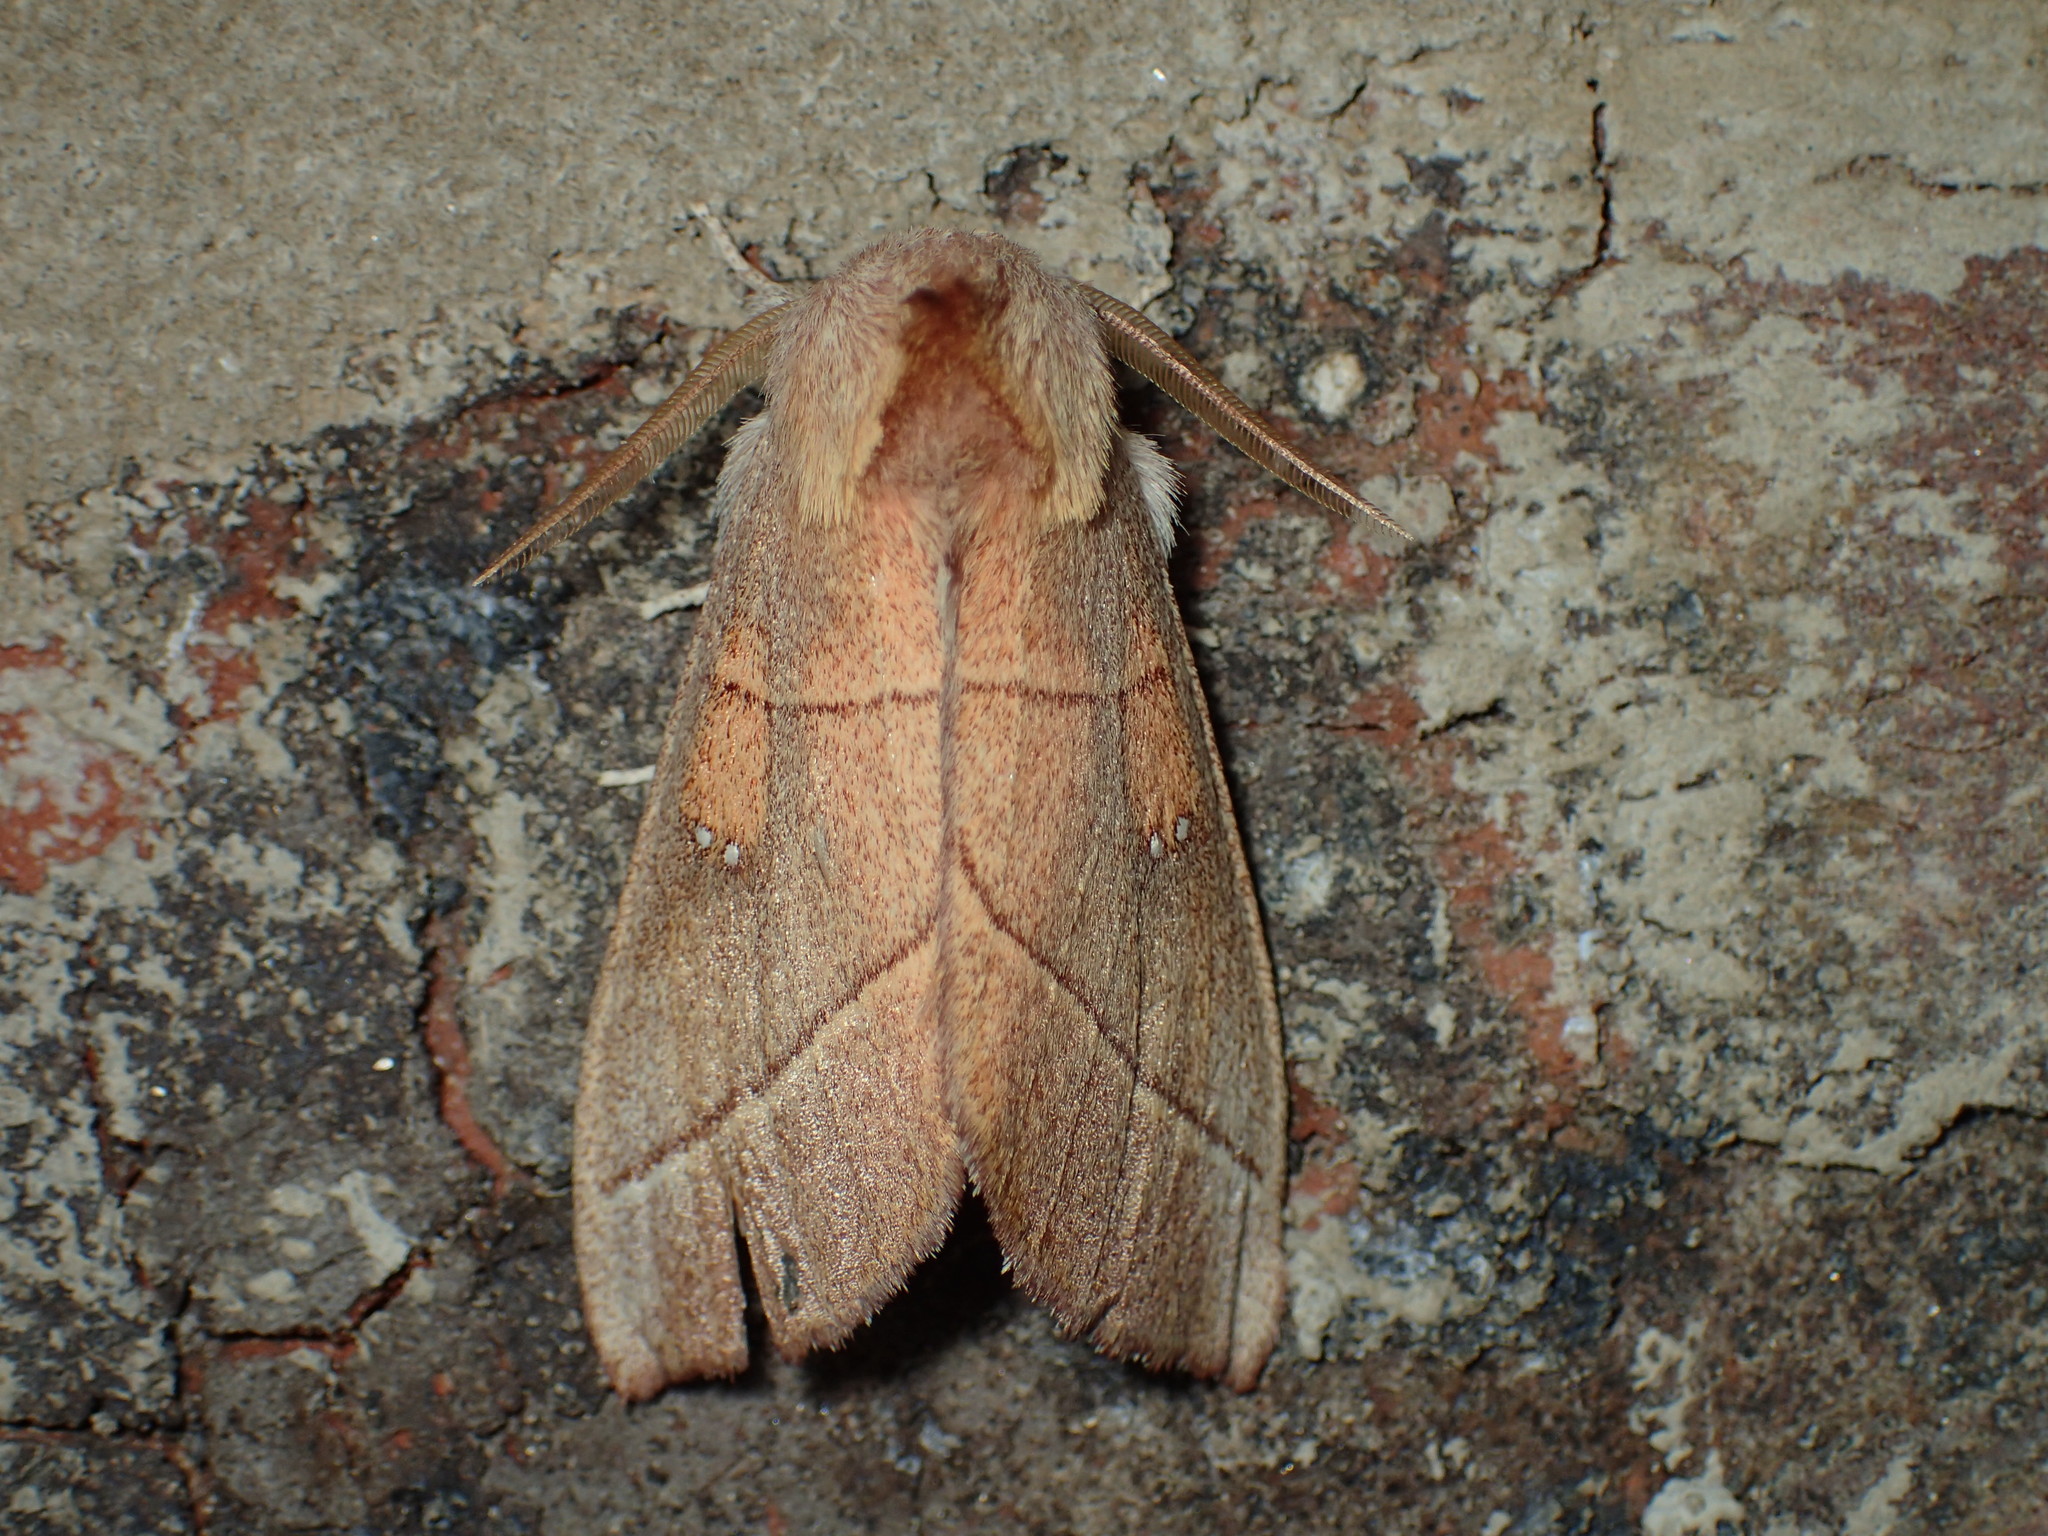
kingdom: Animalia
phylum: Arthropoda
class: Insecta
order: Lepidoptera
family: Notodontidae
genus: Nadata
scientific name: Nadata gibbosa
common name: White-dotted prominent
